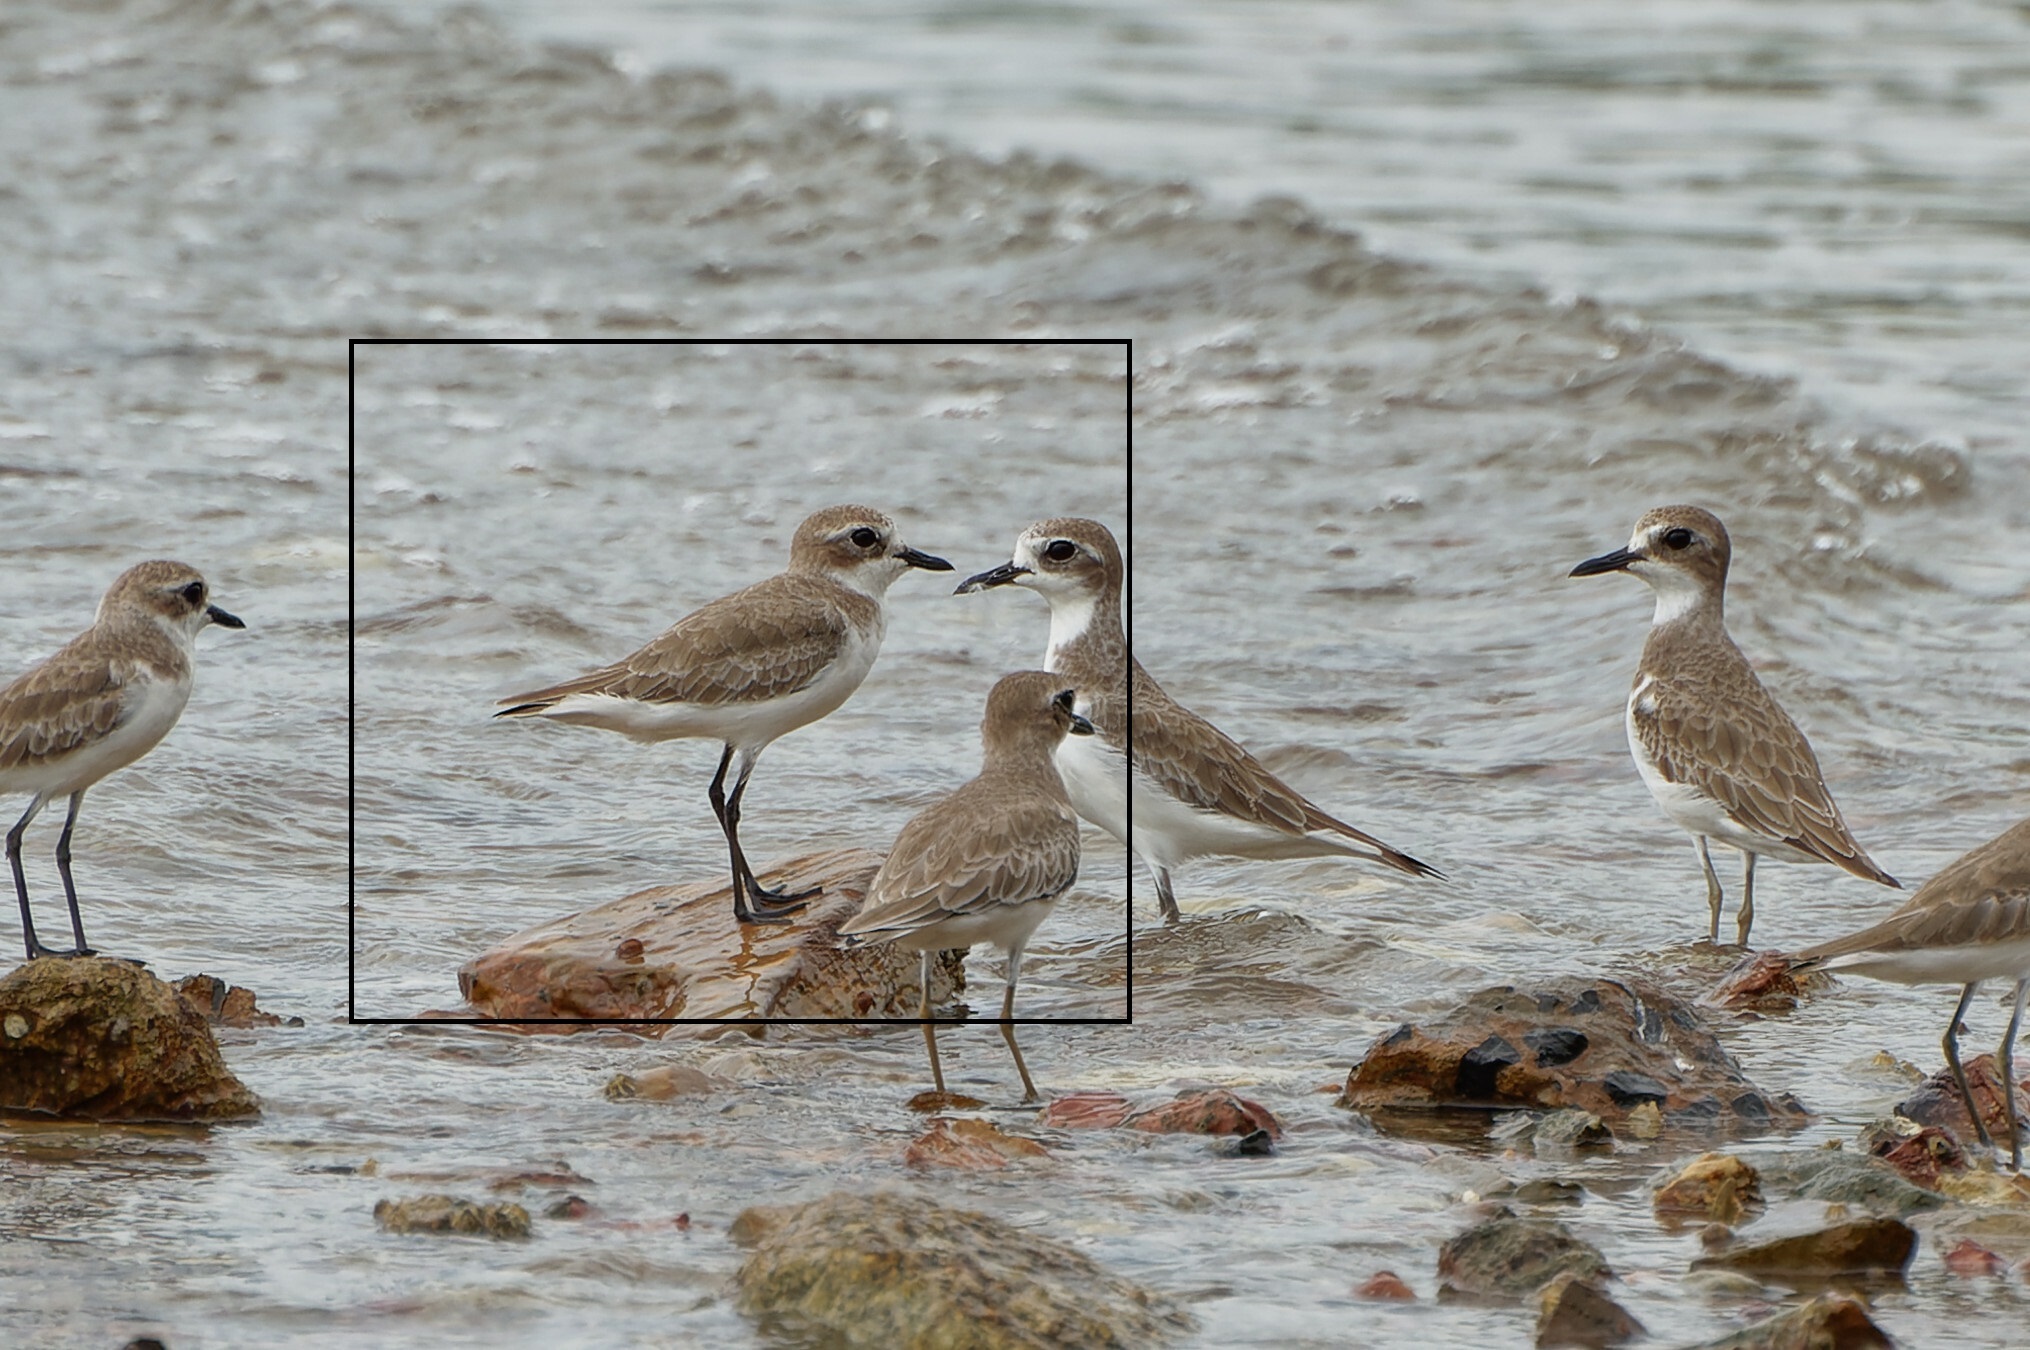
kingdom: Animalia
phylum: Chordata
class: Aves
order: Charadriiformes
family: Charadriidae
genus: Anarhynchus
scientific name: Anarhynchus
